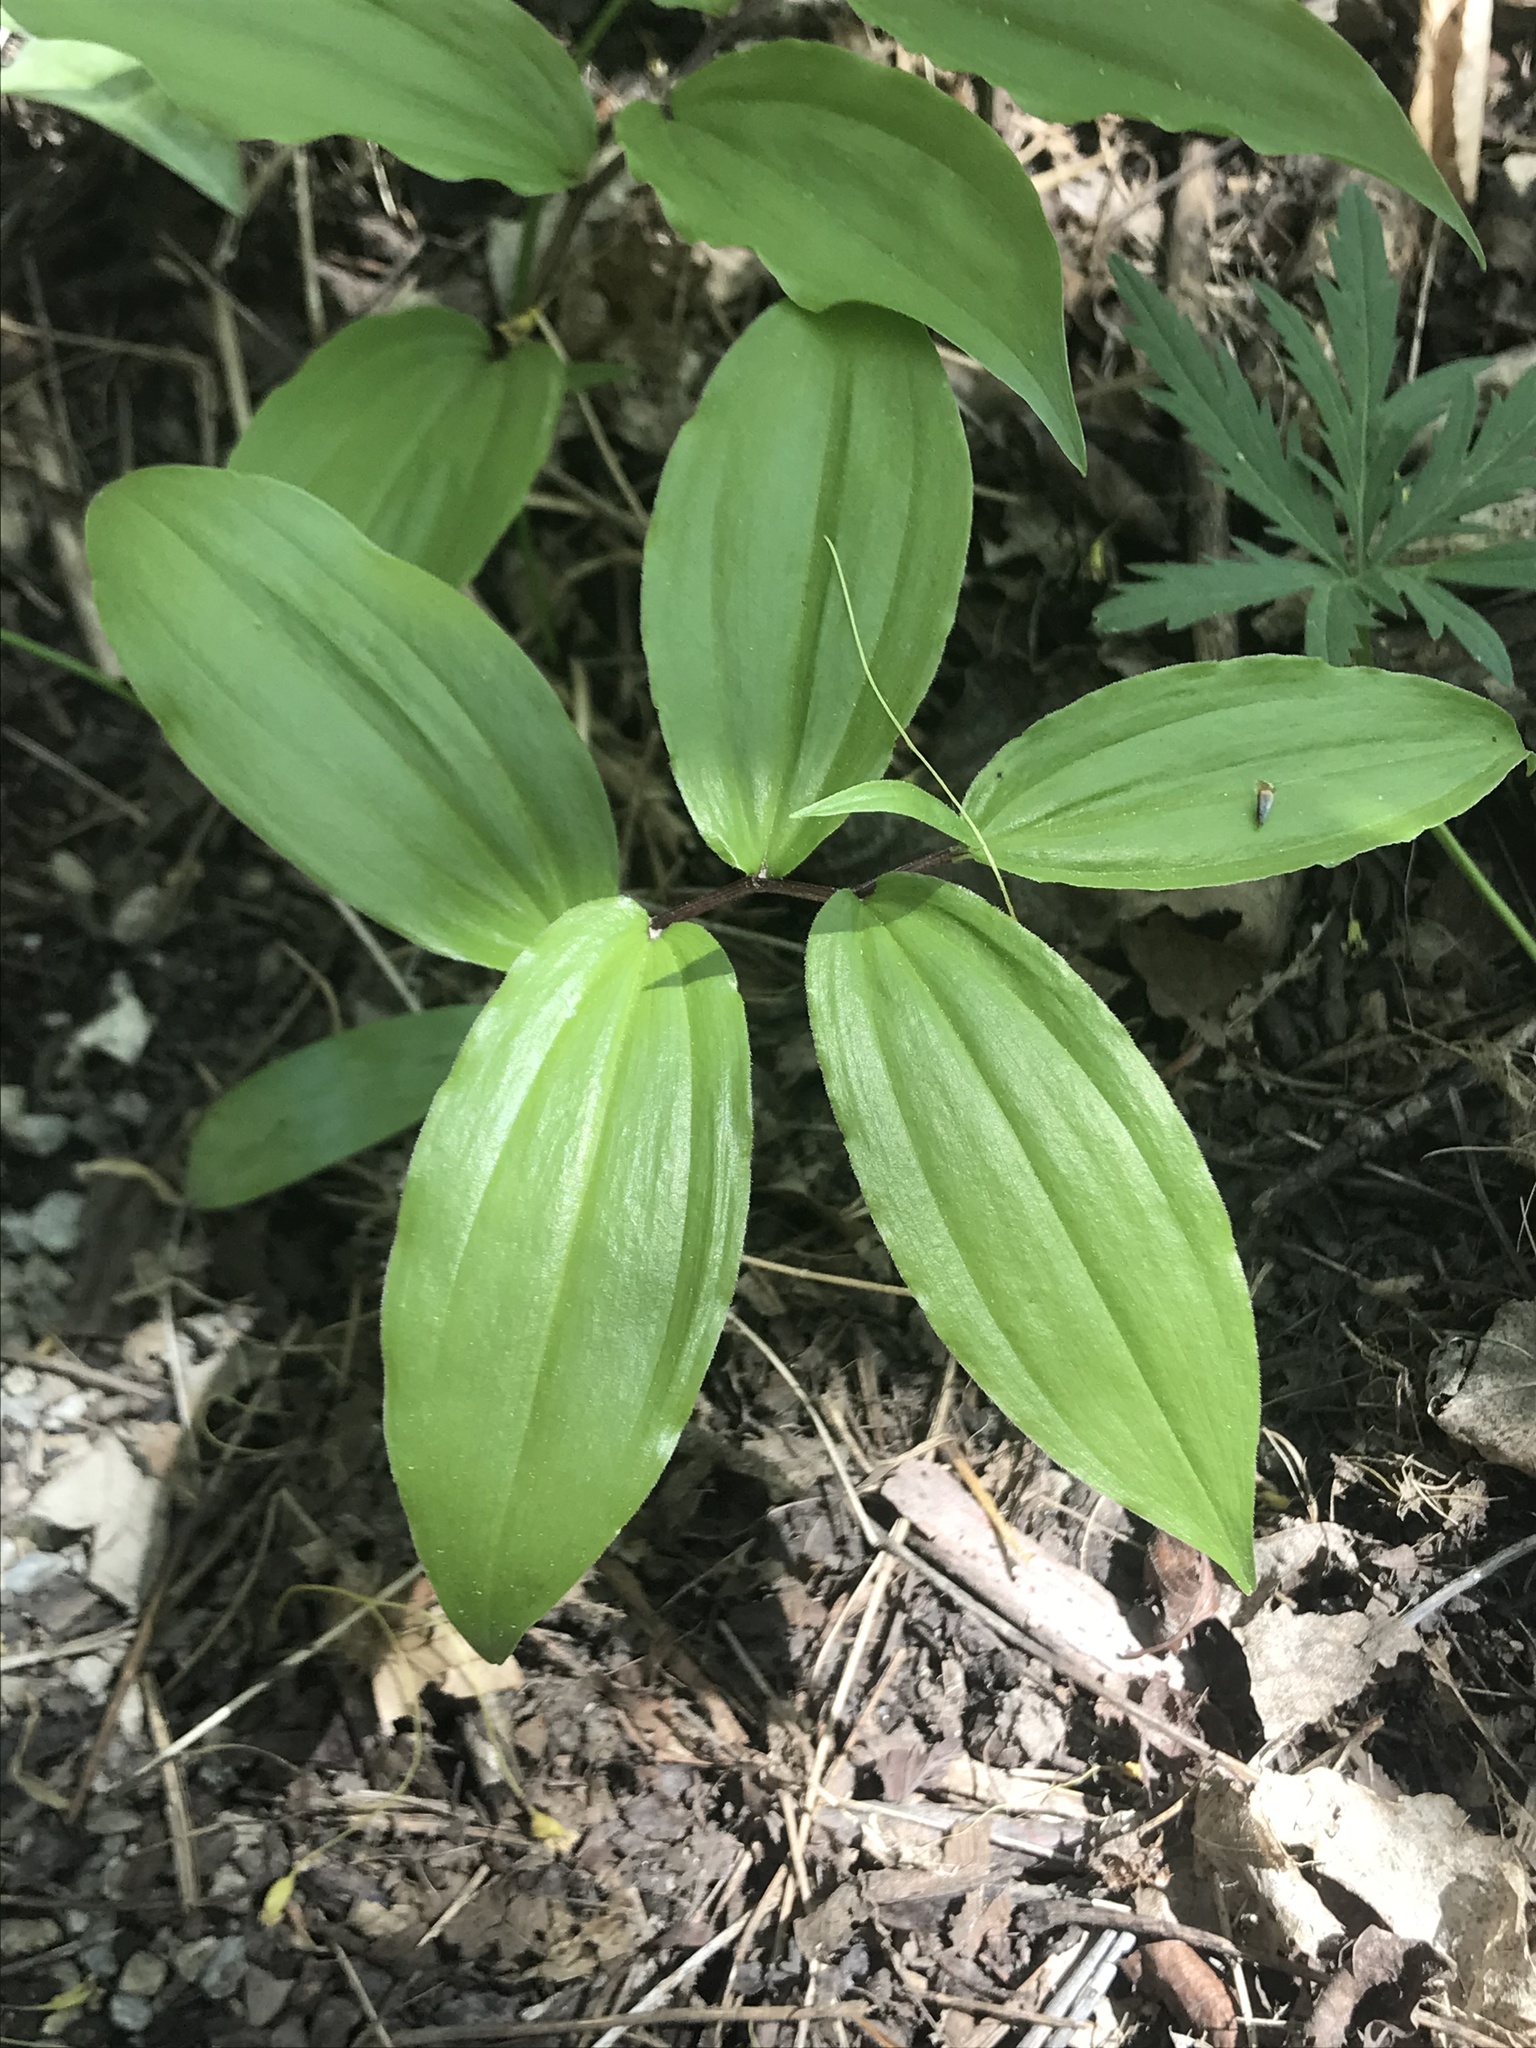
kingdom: Plantae
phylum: Tracheophyta
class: Liliopsida
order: Asparagales
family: Asparagaceae
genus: Maianthemum
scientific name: Maianthemum racemosum
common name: False spikenard
